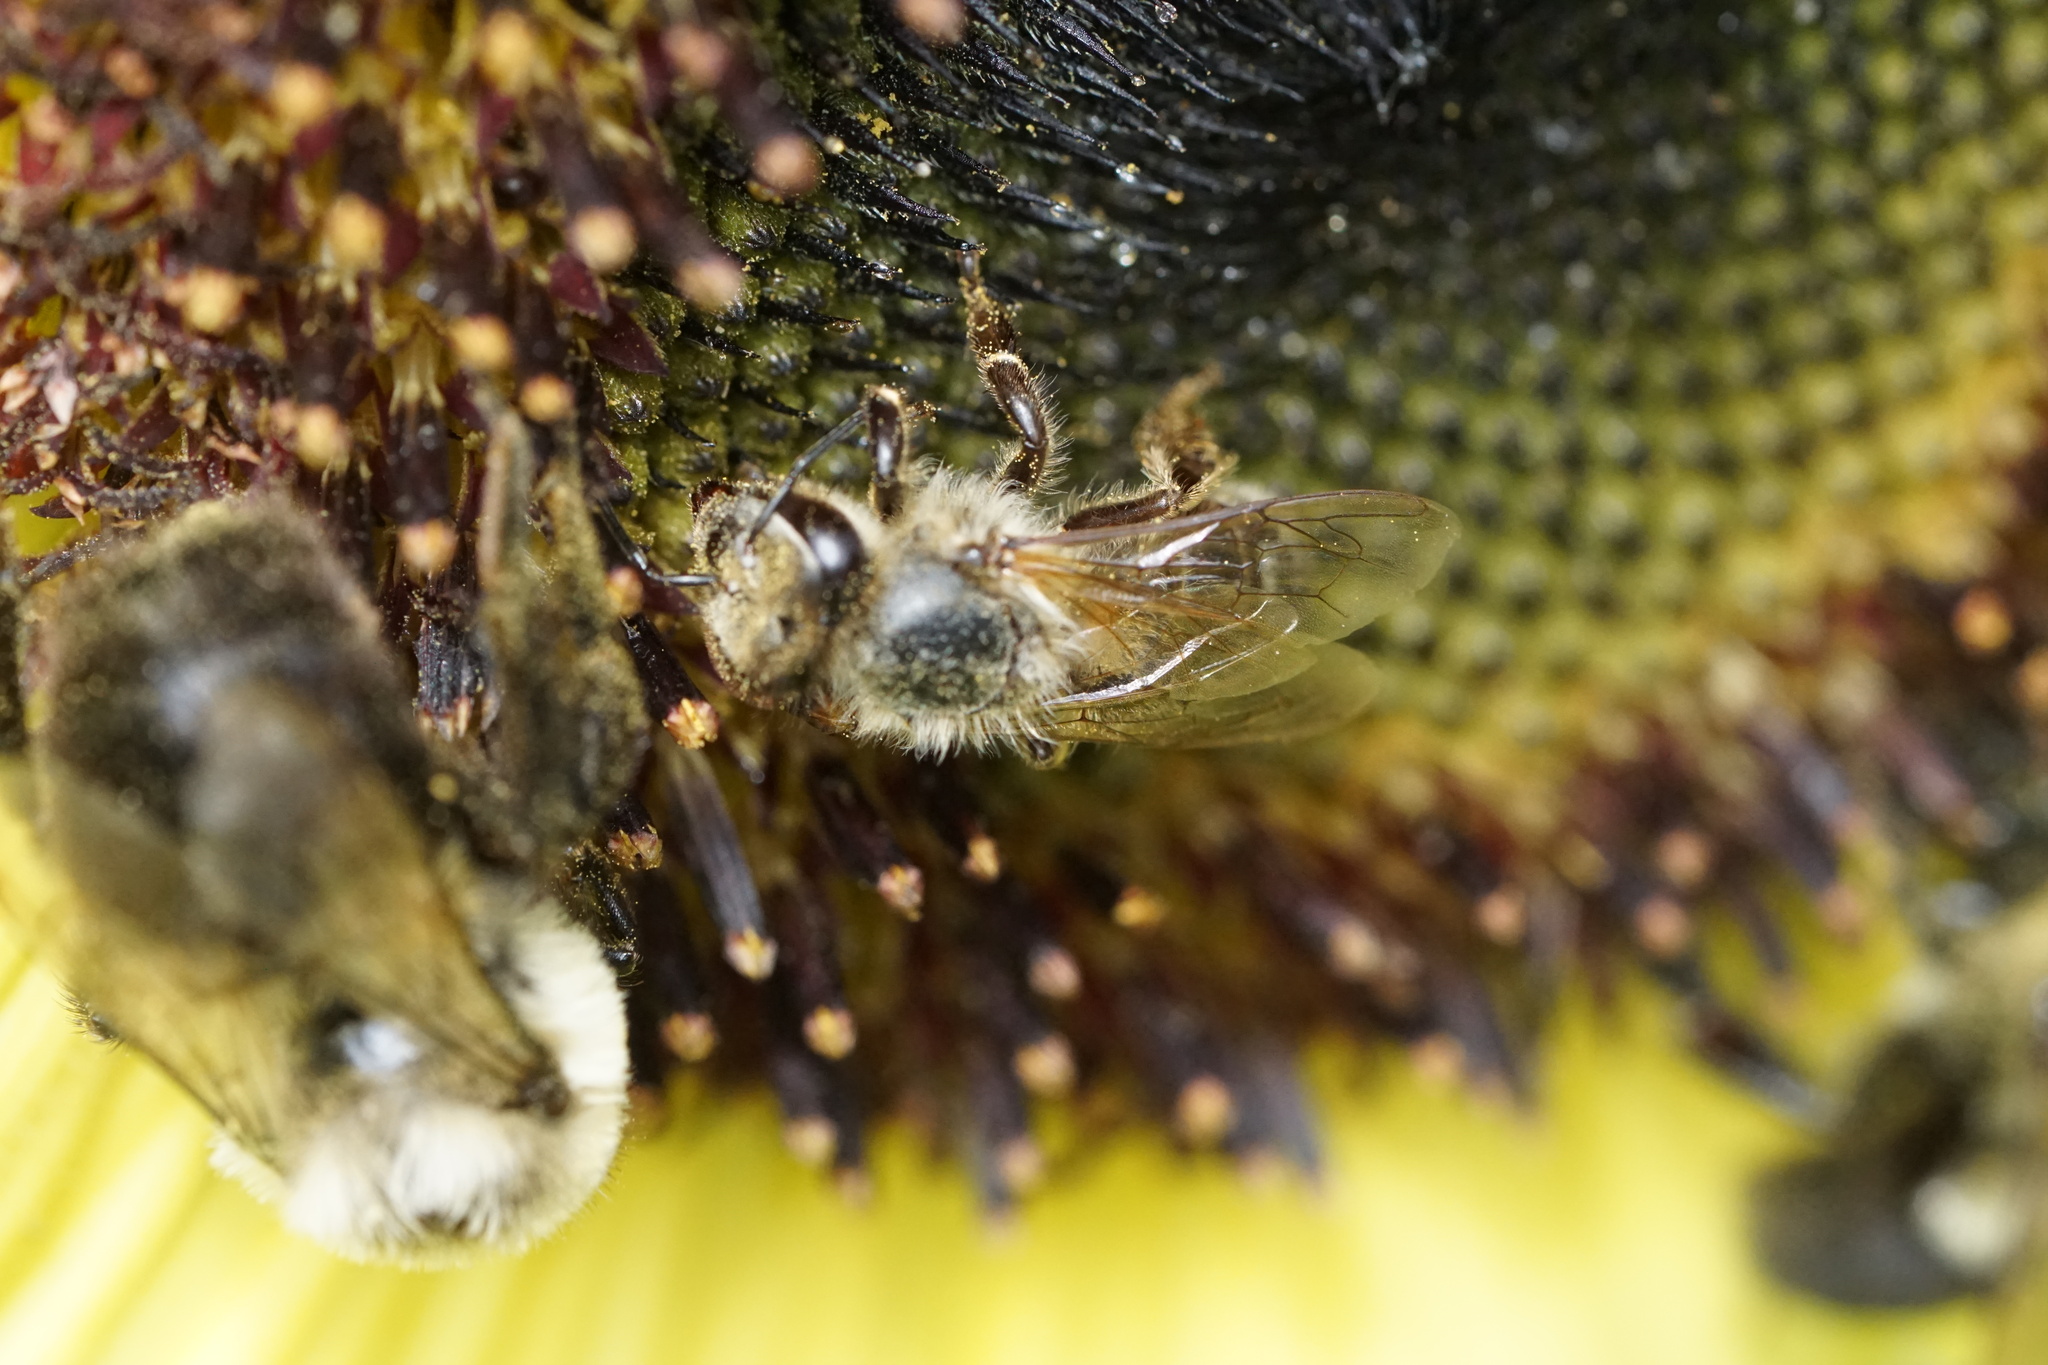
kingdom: Animalia
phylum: Arthropoda
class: Insecta
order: Hymenoptera
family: Apidae
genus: Apis
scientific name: Apis mellifera
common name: Honey bee
